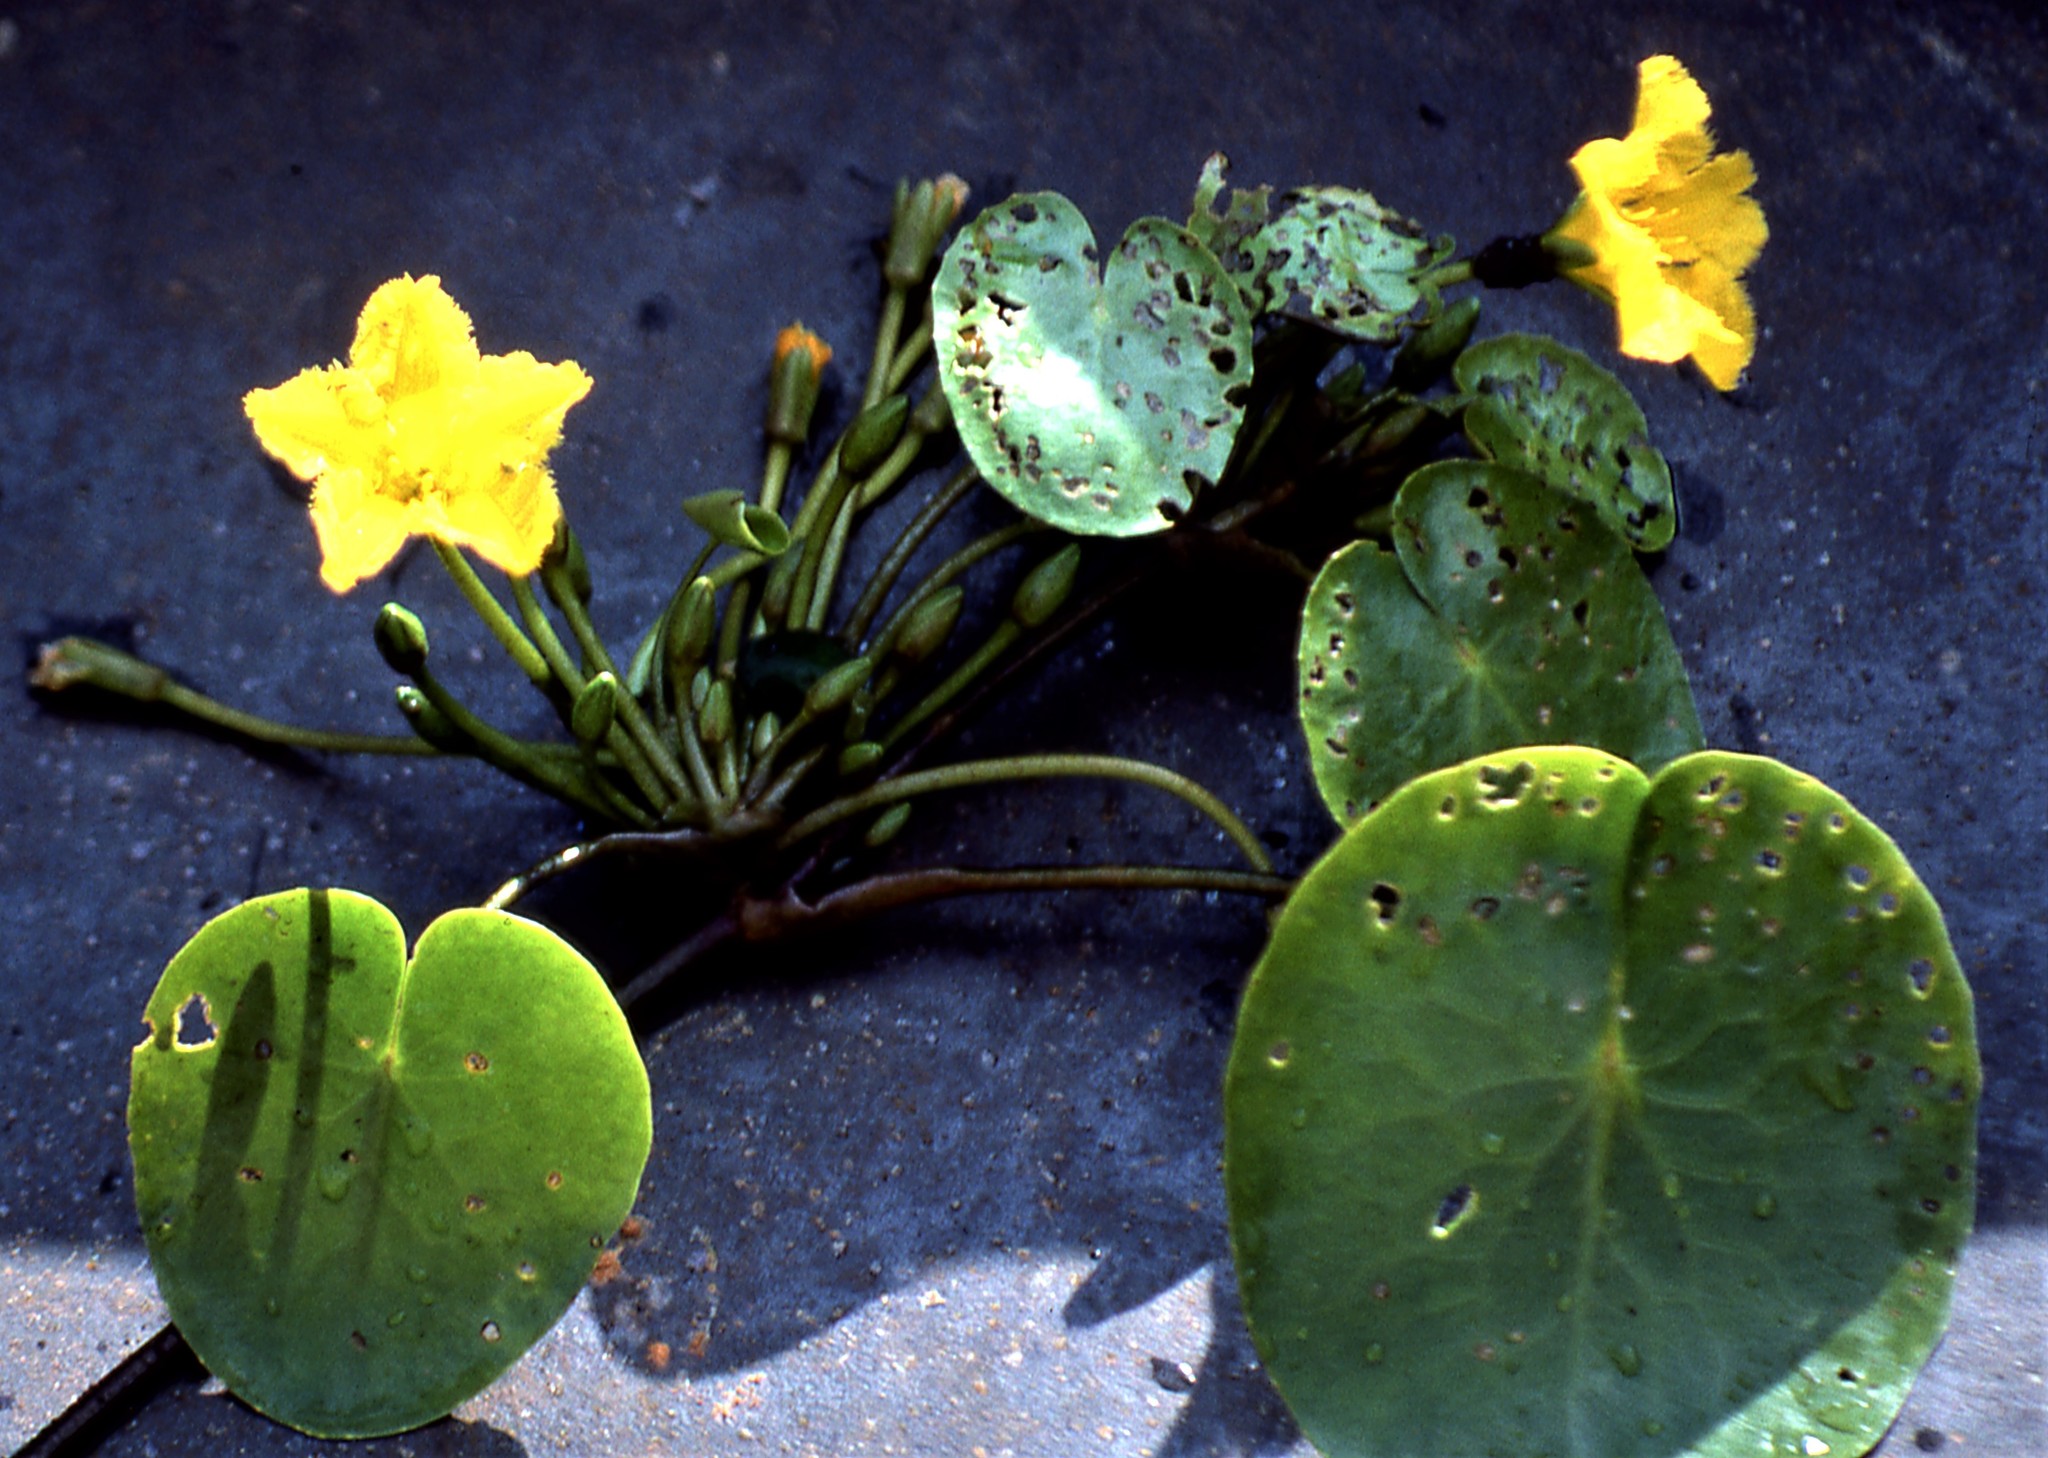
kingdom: Plantae
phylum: Tracheophyta
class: Magnoliopsida
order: Asterales
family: Menyanthaceae
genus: Nymphoides
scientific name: Nymphoides peltata
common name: Fringed water-lily
